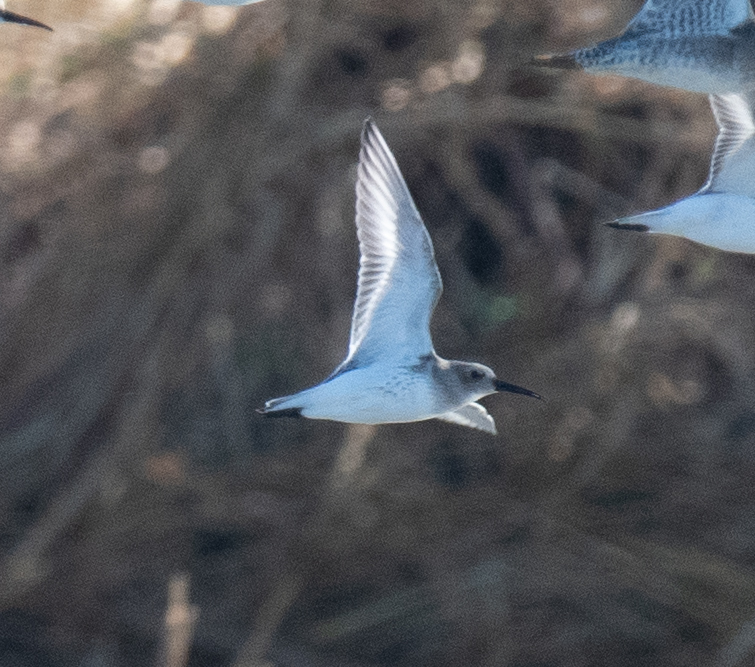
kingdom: Animalia
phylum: Chordata
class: Aves
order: Charadriiformes
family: Scolopacidae
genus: Calidris
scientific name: Calidris alpina
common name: Dunlin
